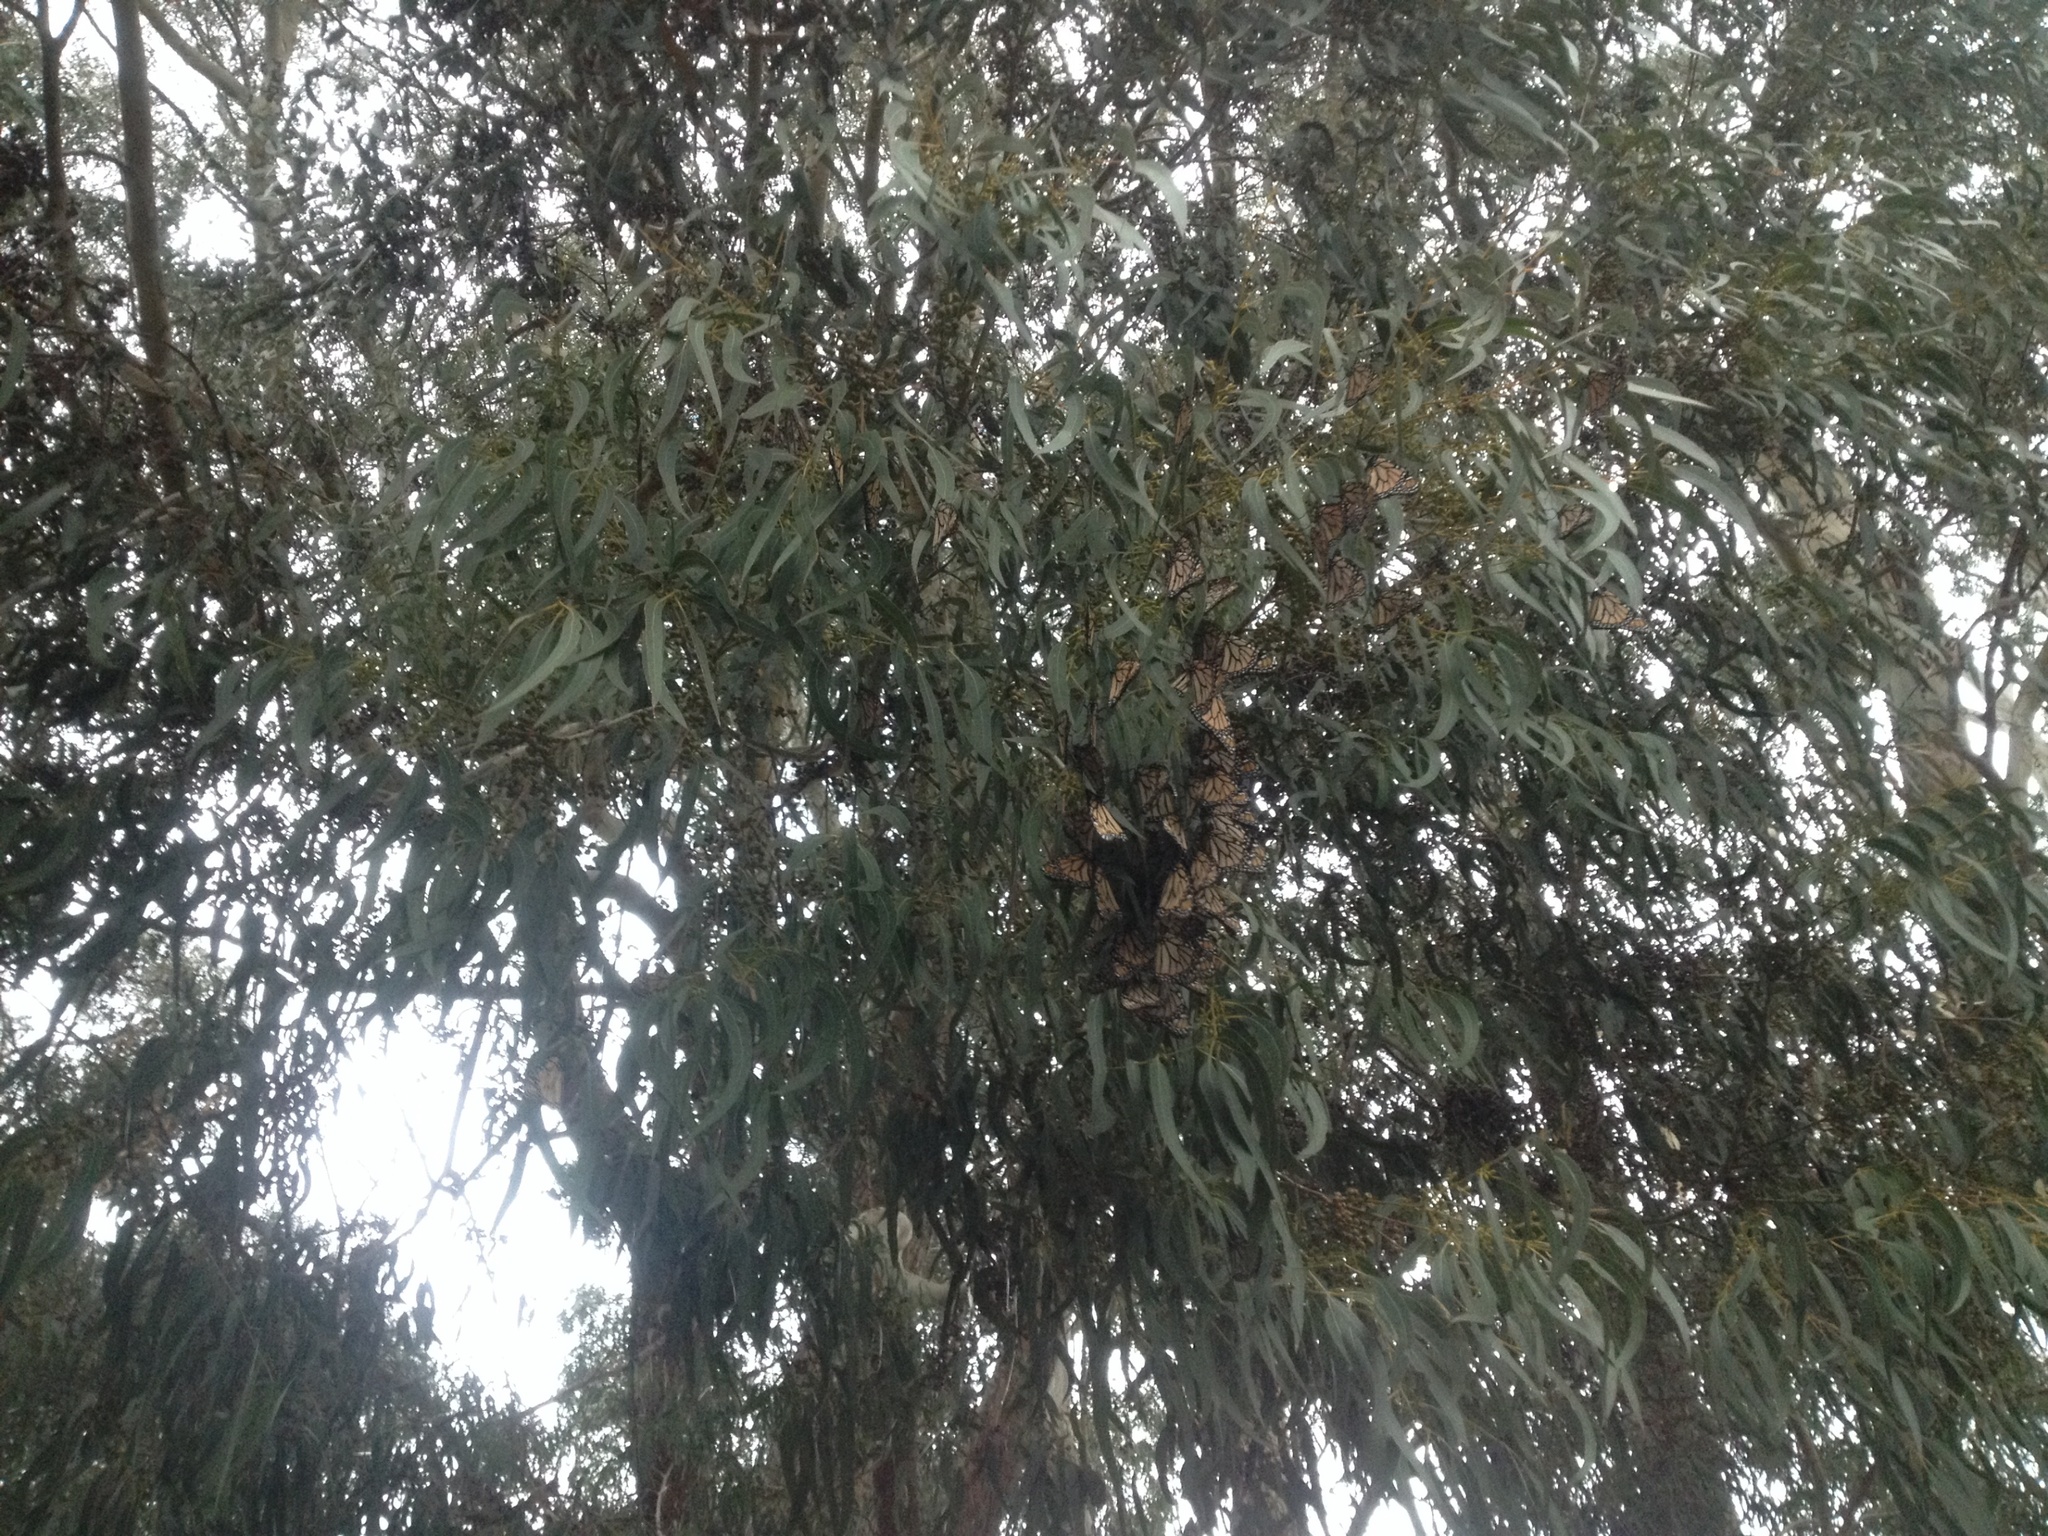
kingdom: Animalia
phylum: Arthropoda
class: Insecta
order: Lepidoptera
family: Nymphalidae
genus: Danaus
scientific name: Danaus plexippus
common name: Monarch
